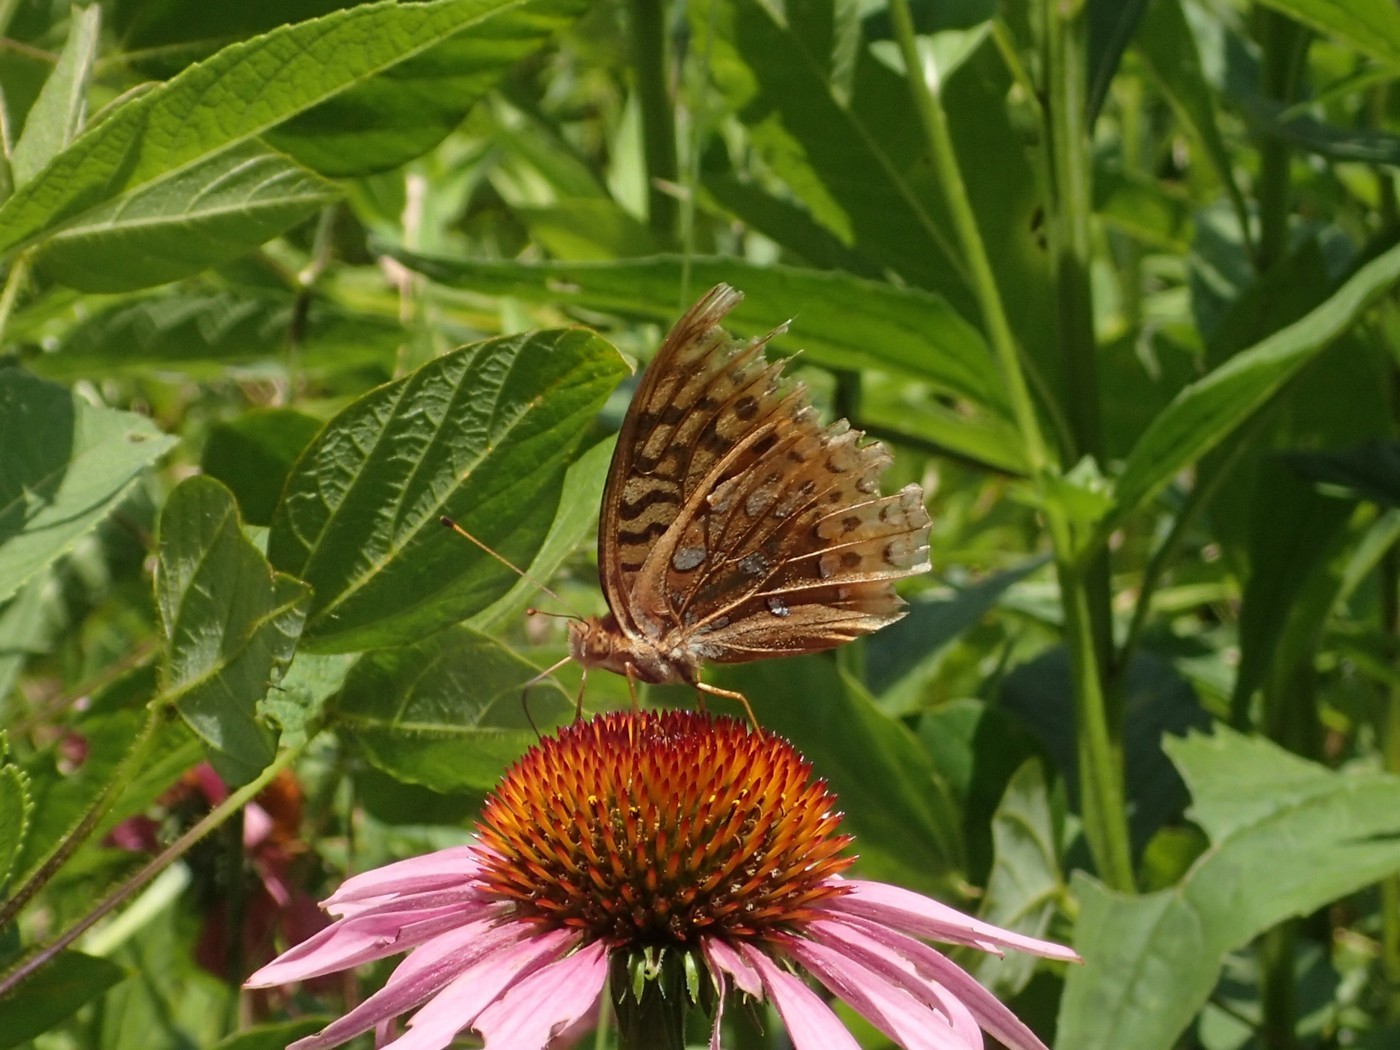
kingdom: Animalia
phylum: Arthropoda
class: Insecta
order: Lepidoptera
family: Nymphalidae
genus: Speyeria
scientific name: Speyeria cybele
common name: Great spangled fritillary
